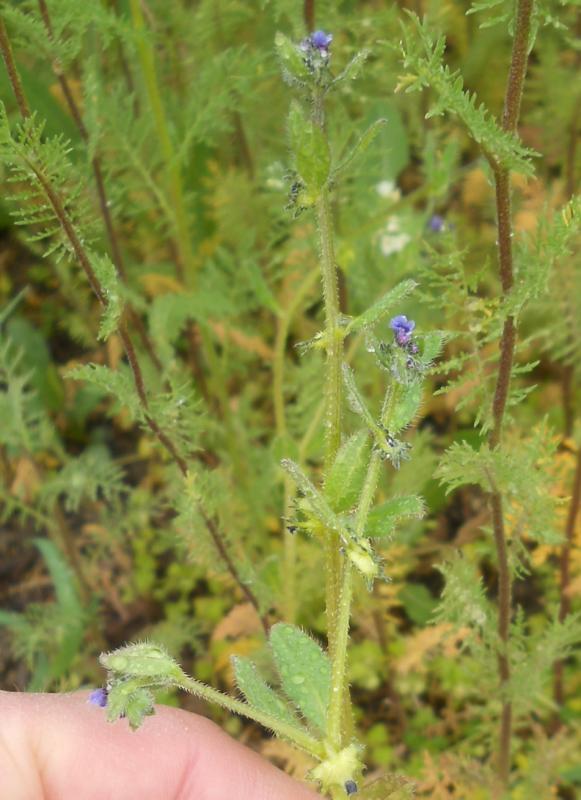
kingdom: Plantae
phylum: Tracheophyta
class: Magnoliopsida
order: Boraginales
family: Boraginaceae
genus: Asperugo
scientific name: Asperugo procumbens
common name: Madwort
